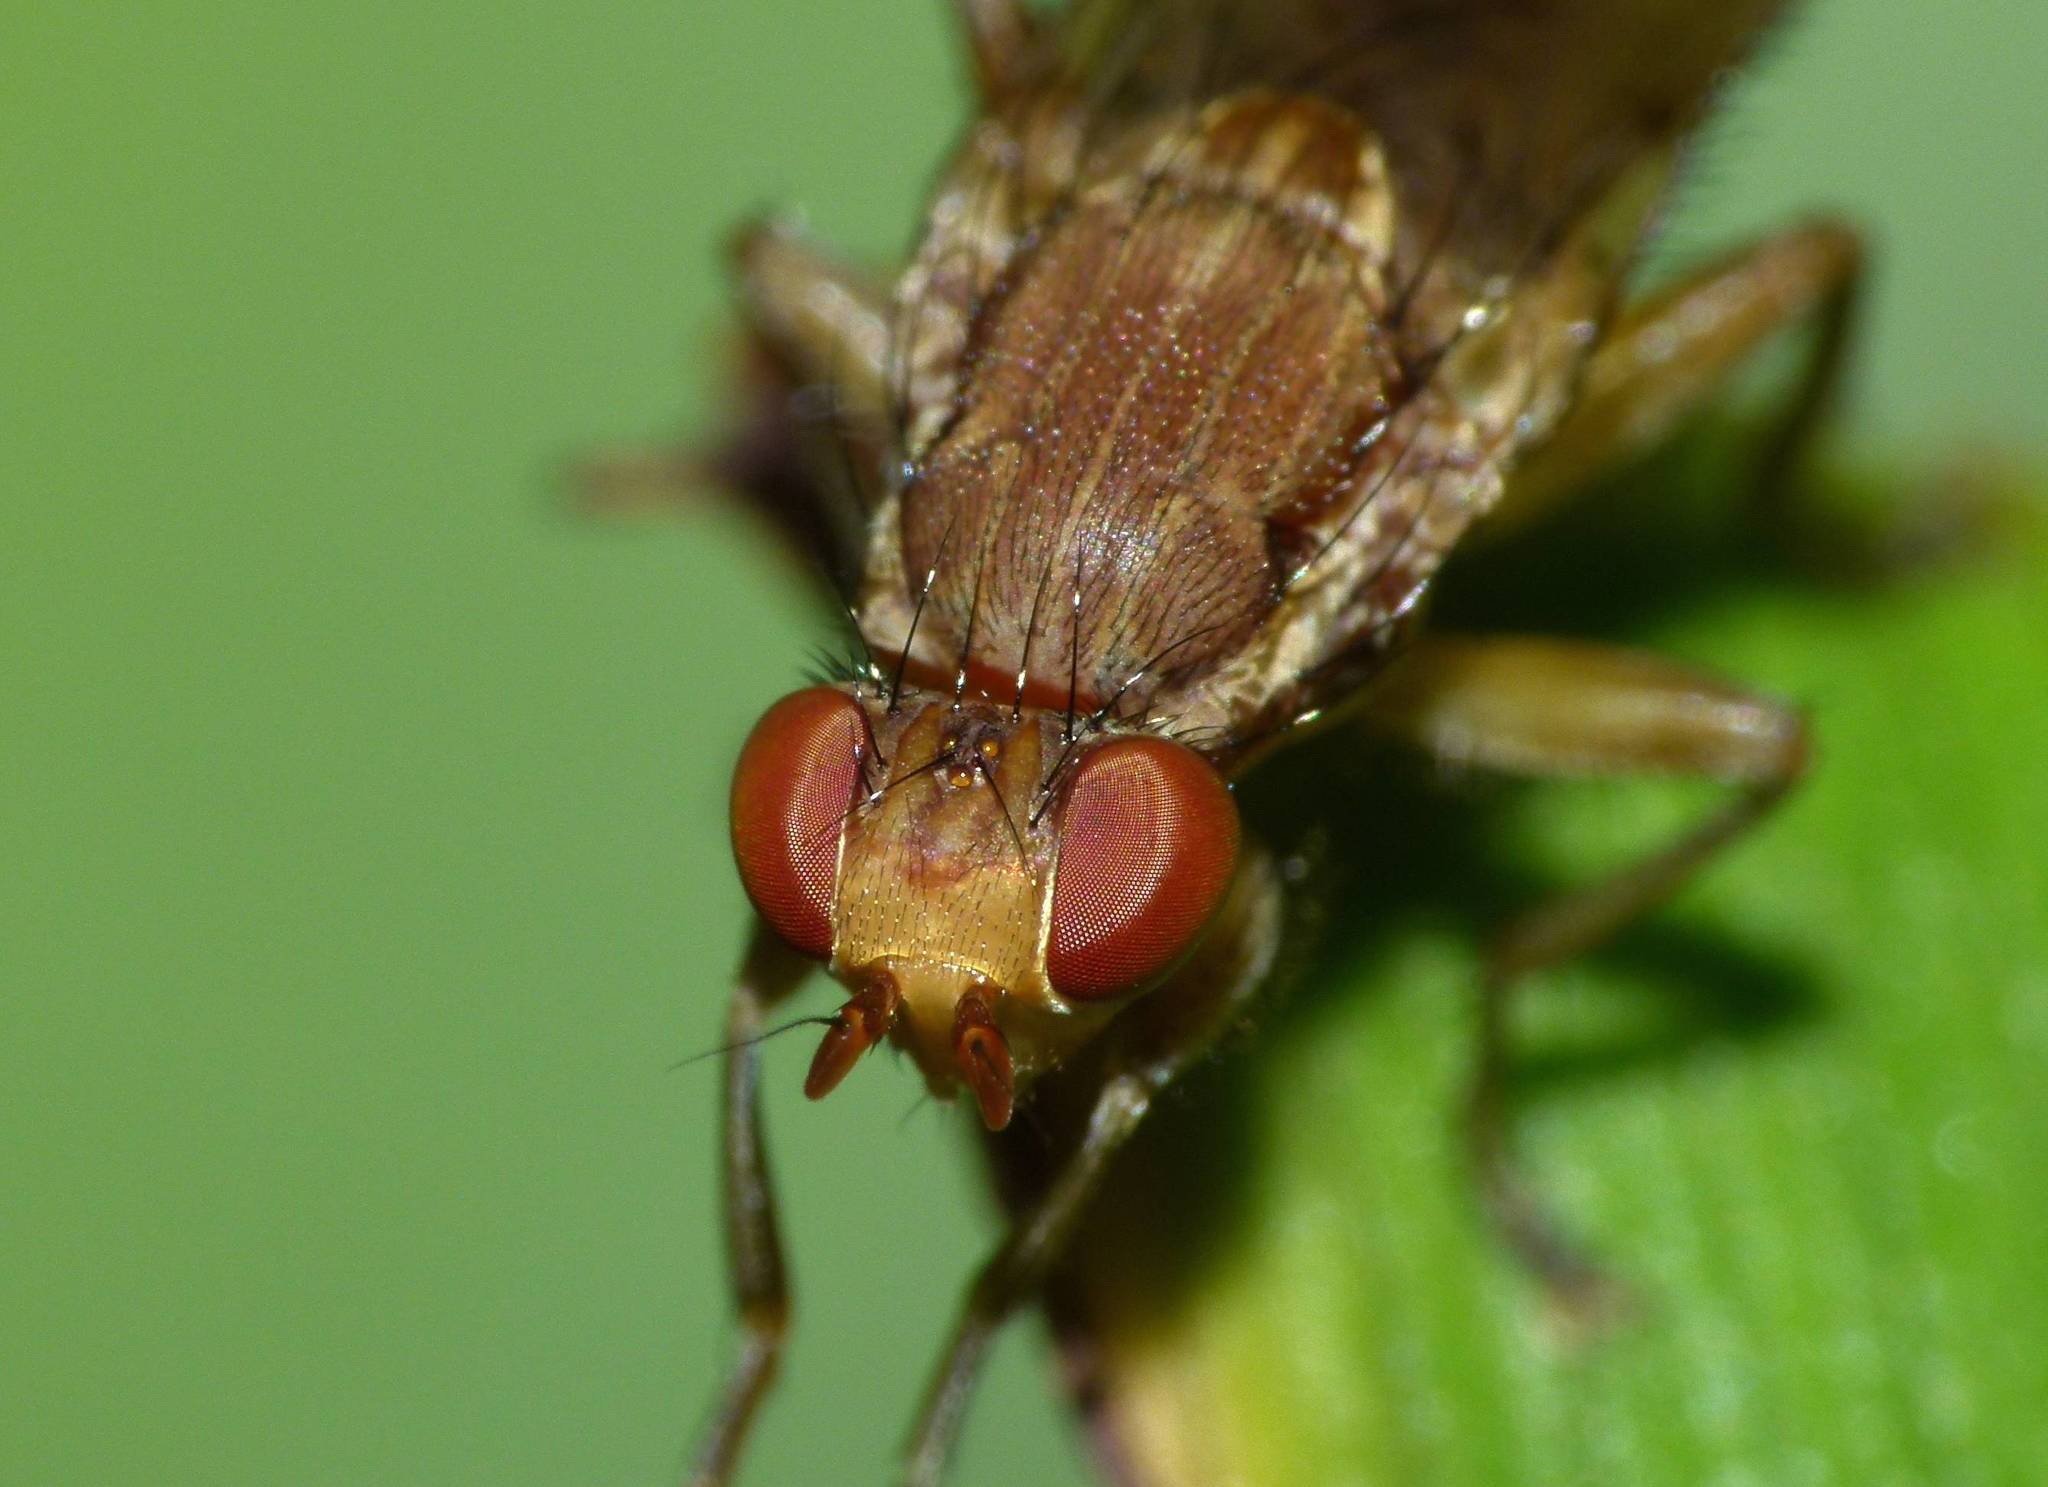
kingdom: Animalia
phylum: Arthropoda
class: Insecta
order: Diptera
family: Helosciomyzidae
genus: Napaeosciomyza
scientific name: Napaeosciomyza spinicosta
